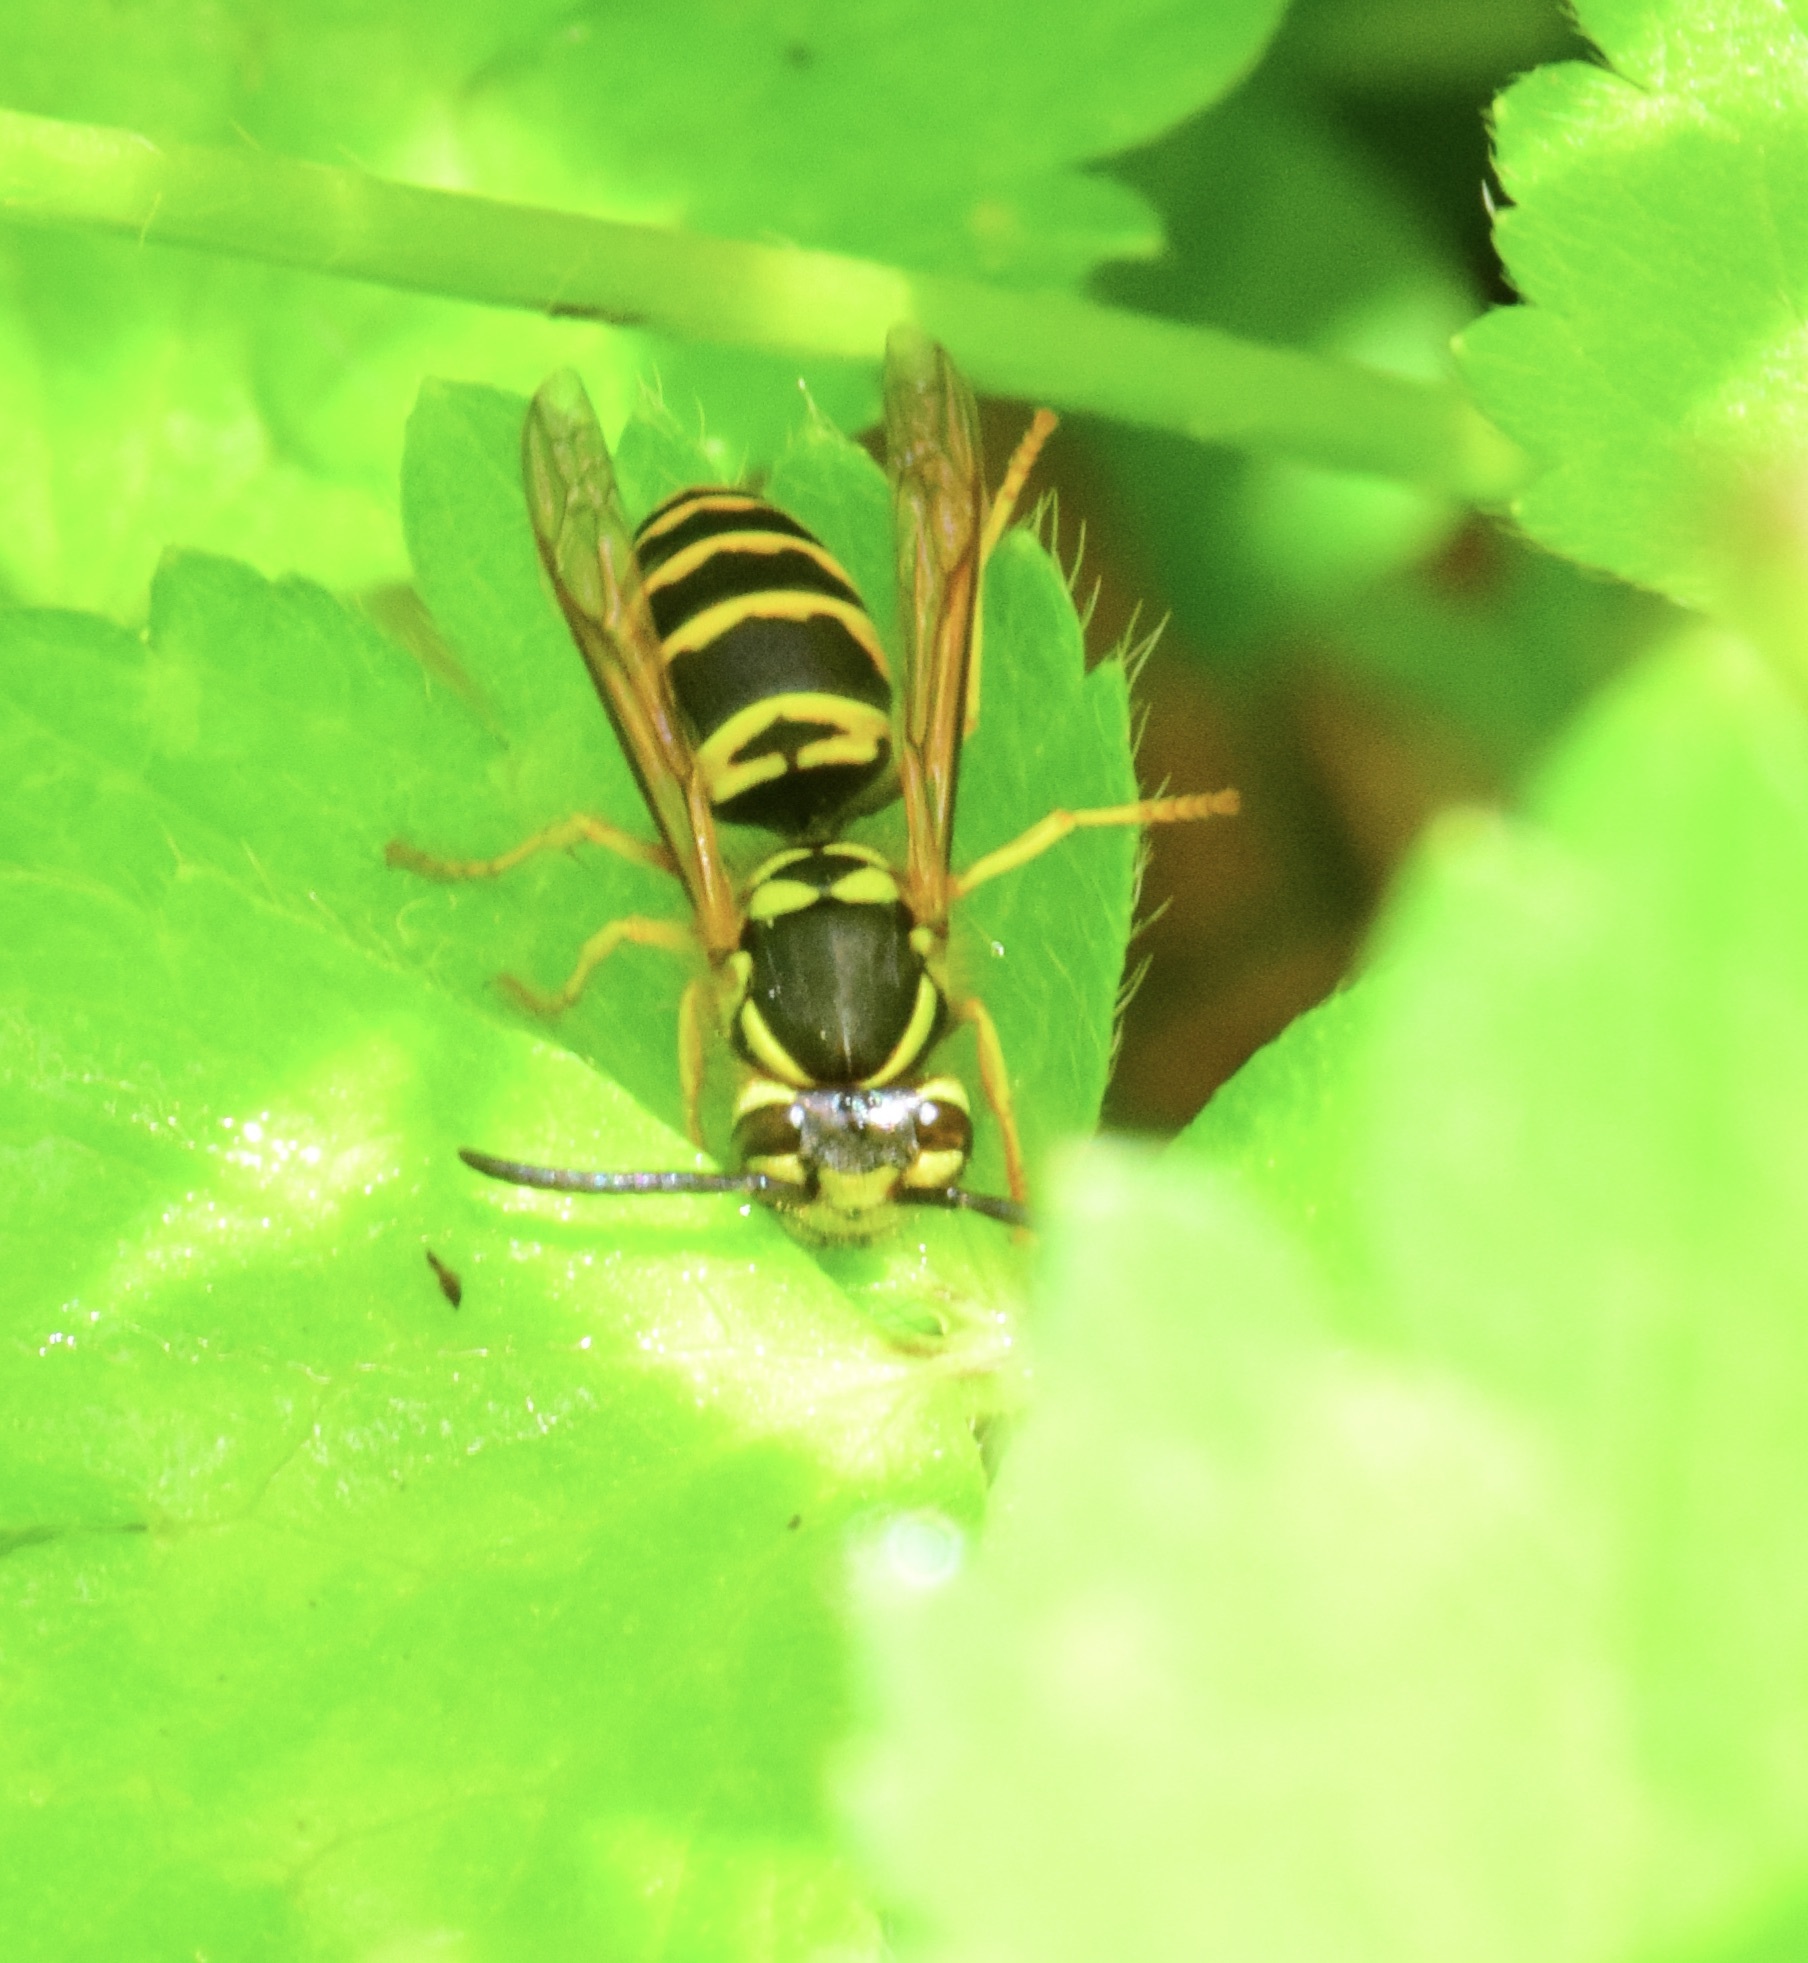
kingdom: Animalia
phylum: Arthropoda
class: Insecta
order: Hymenoptera
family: Vespidae
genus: Vespula
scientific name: Vespula maculifrons
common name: Eastern yellowjacket
